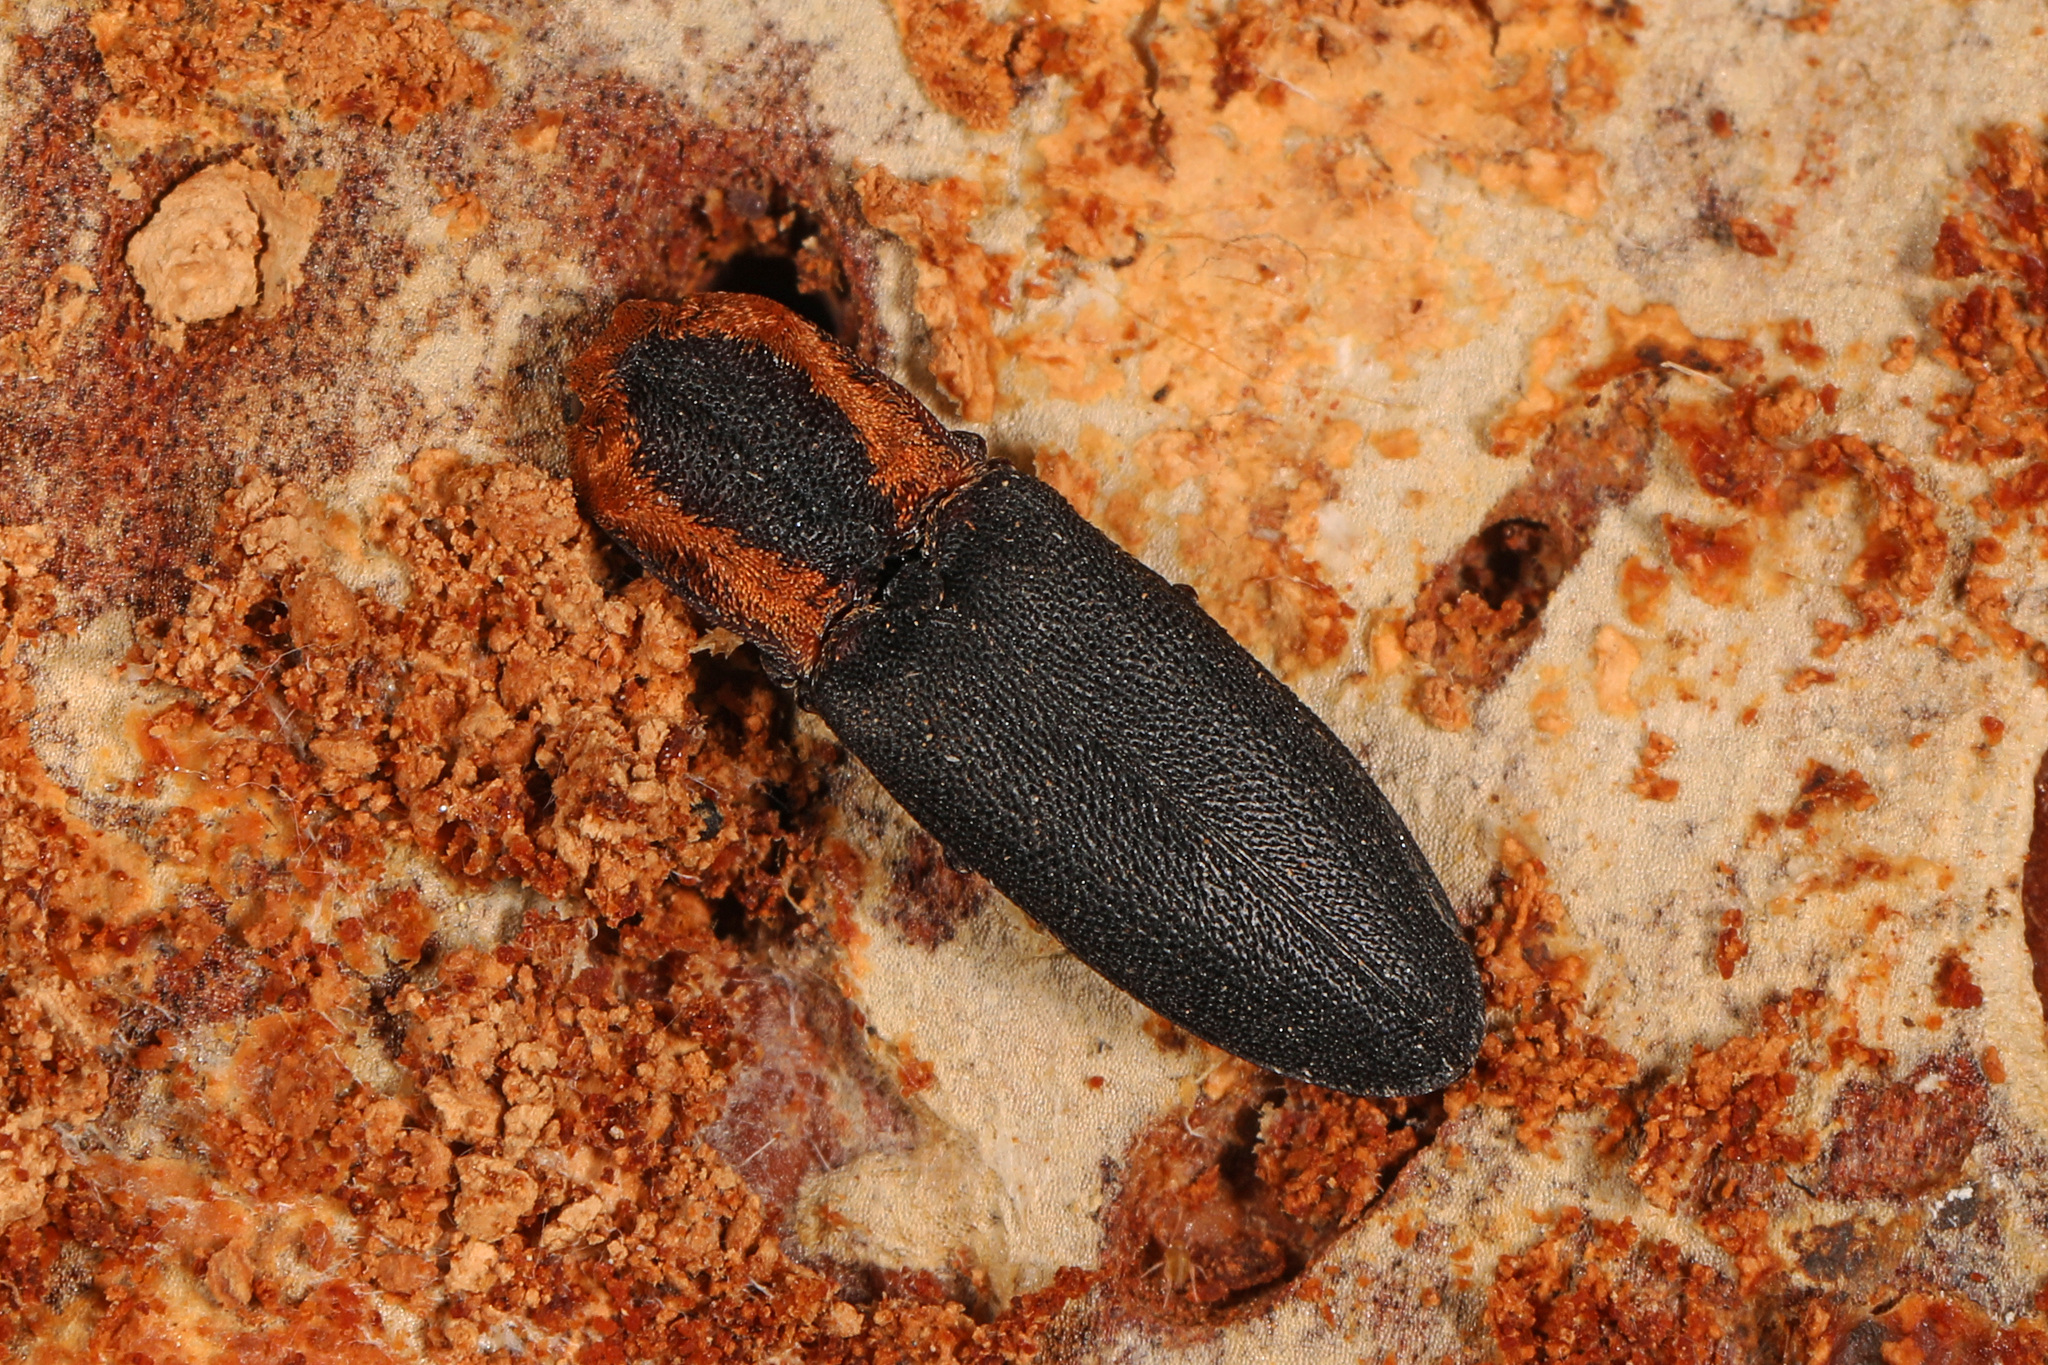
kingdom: Animalia
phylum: Arthropoda
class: Insecta
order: Coleoptera
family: Elateridae
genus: Lacon
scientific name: Lacon discoideus
